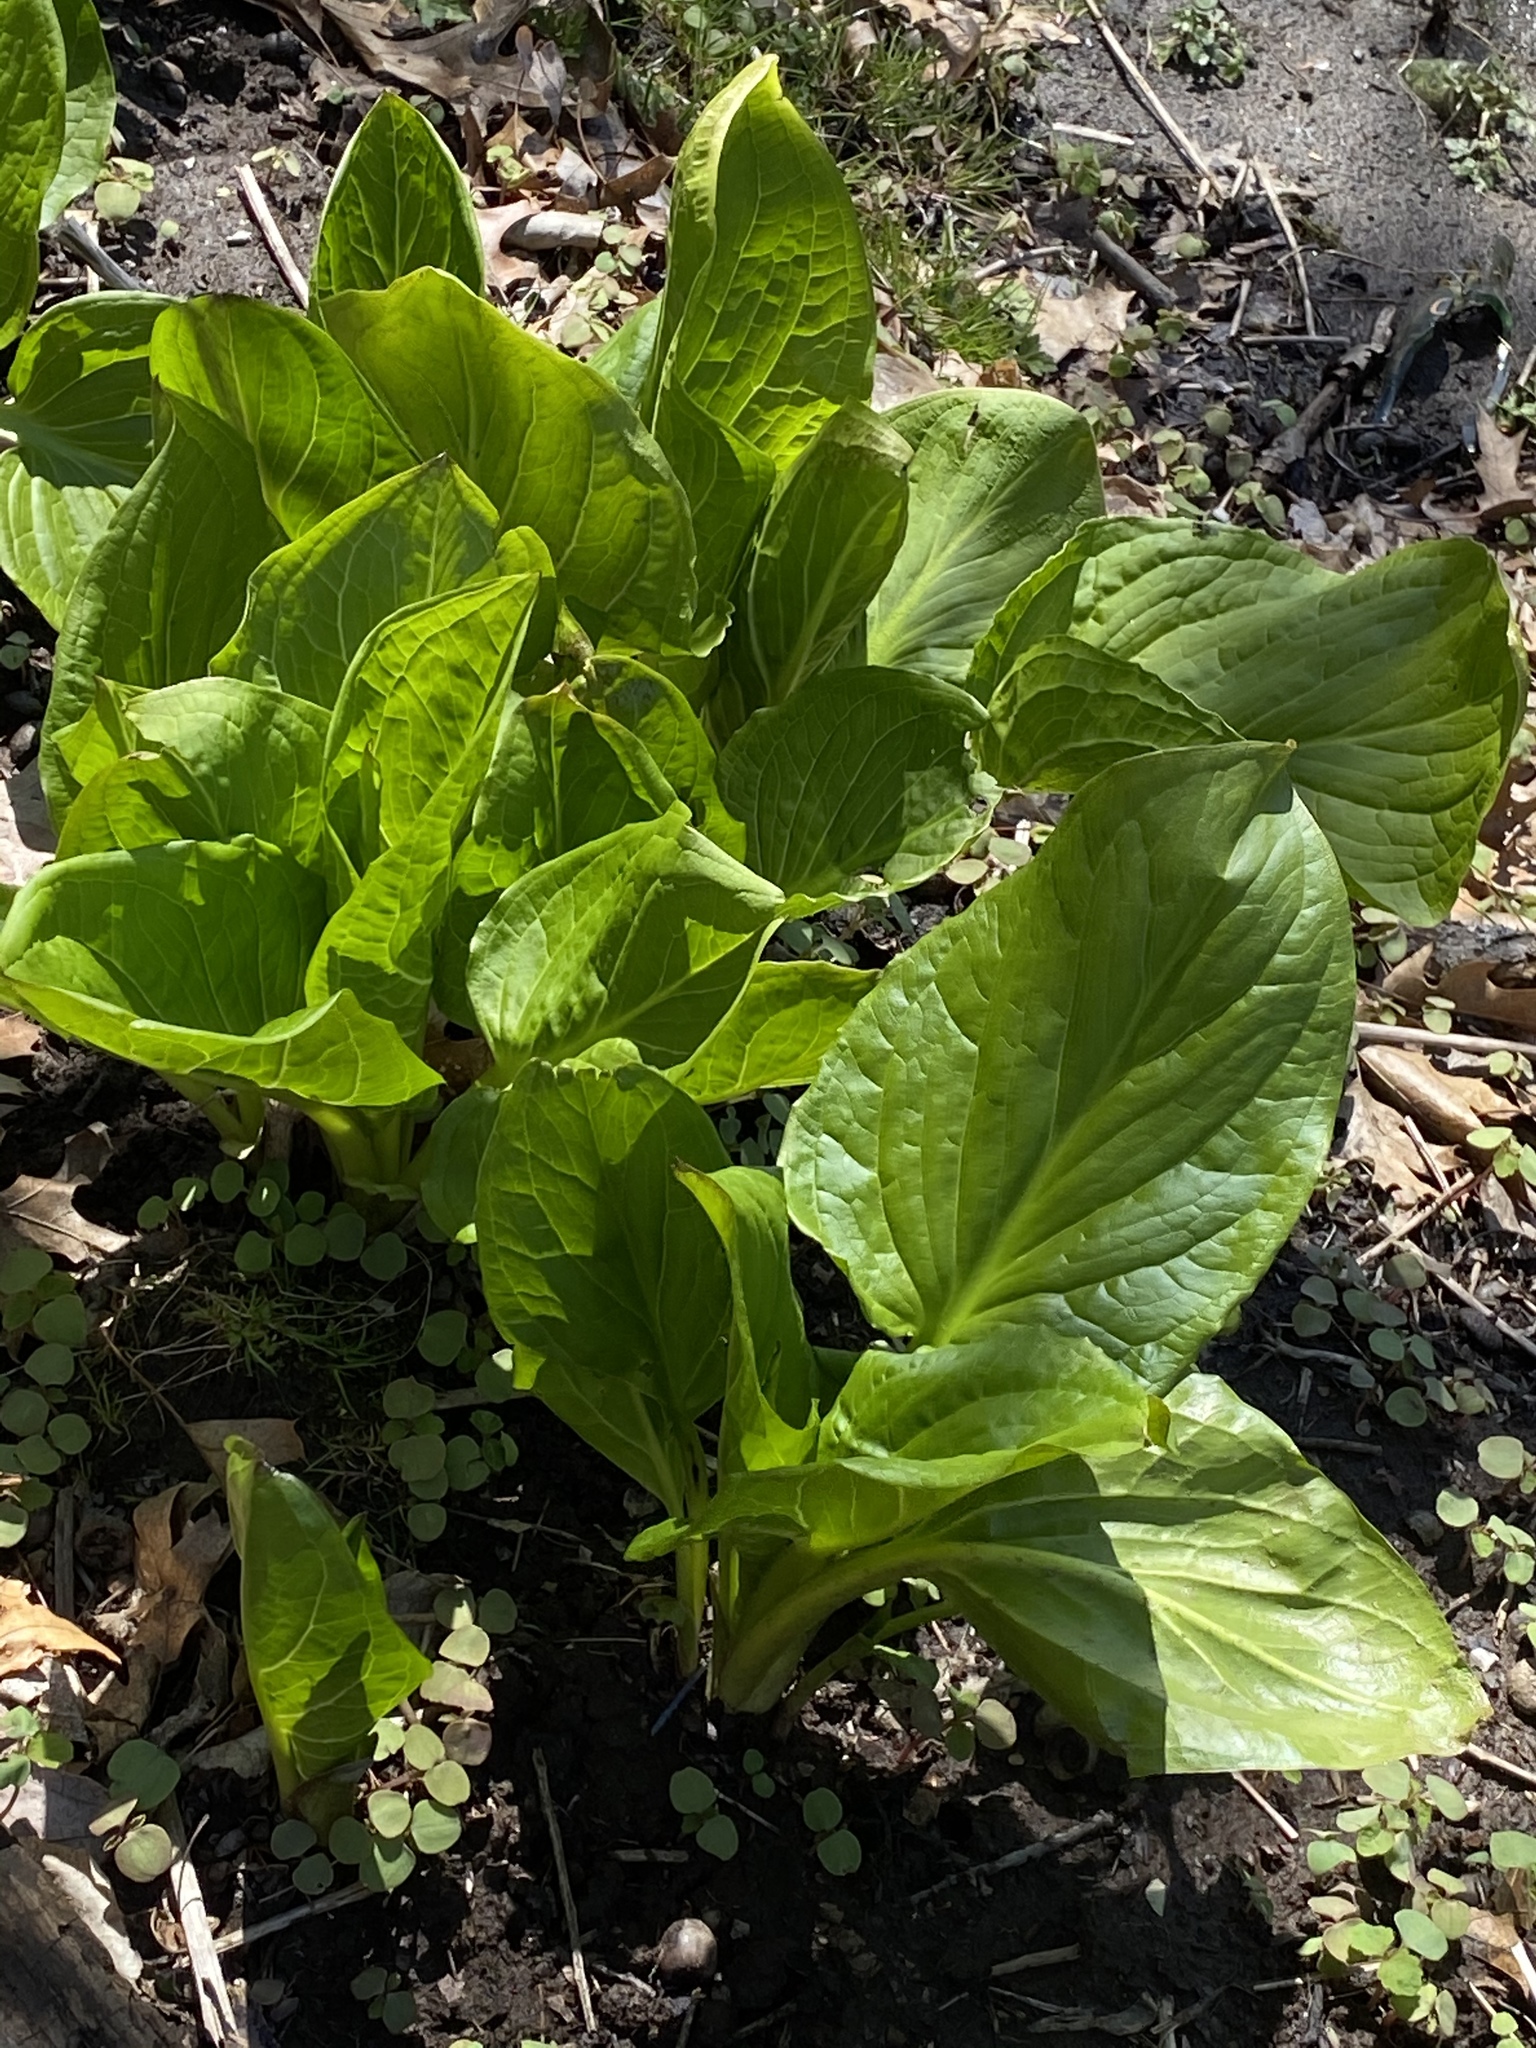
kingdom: Plantae
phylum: Tracheophyta
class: Liliopsida
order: Alismatales
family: Araceae
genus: Symplocarpus
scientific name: Symplocarpus foetidus
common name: Eastern skunk cabbage
